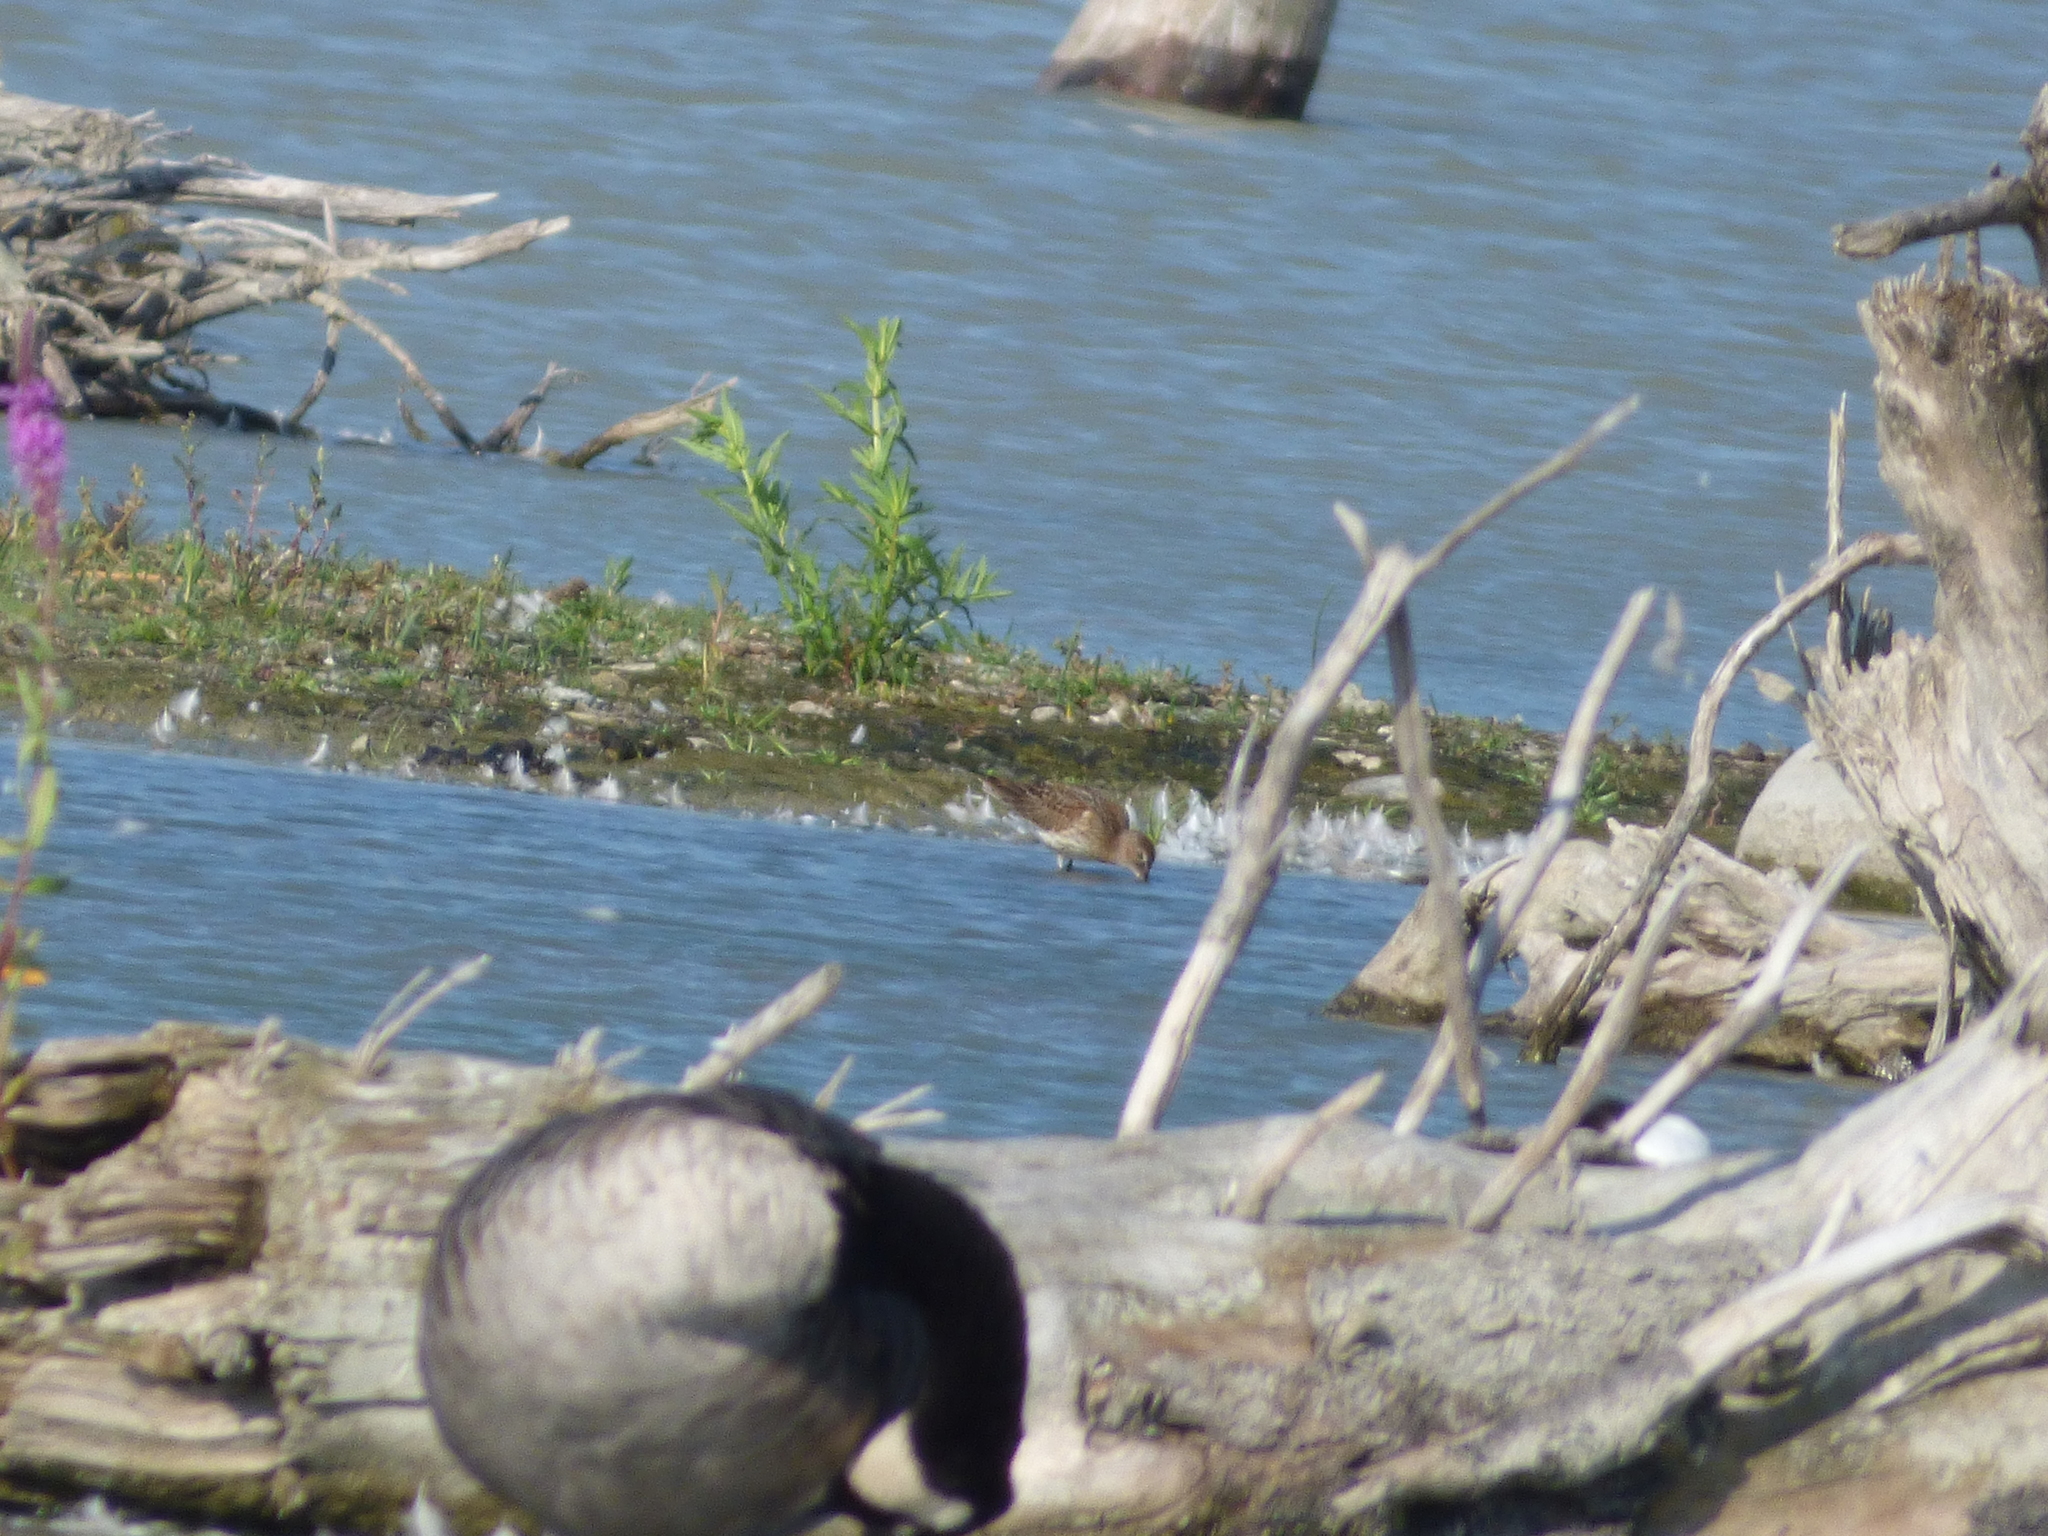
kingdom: Animalia
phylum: Chordata
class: Aves
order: Charadriiformes
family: Scolopacidae
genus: Calidris
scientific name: Calidris alpina
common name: Dunlin
